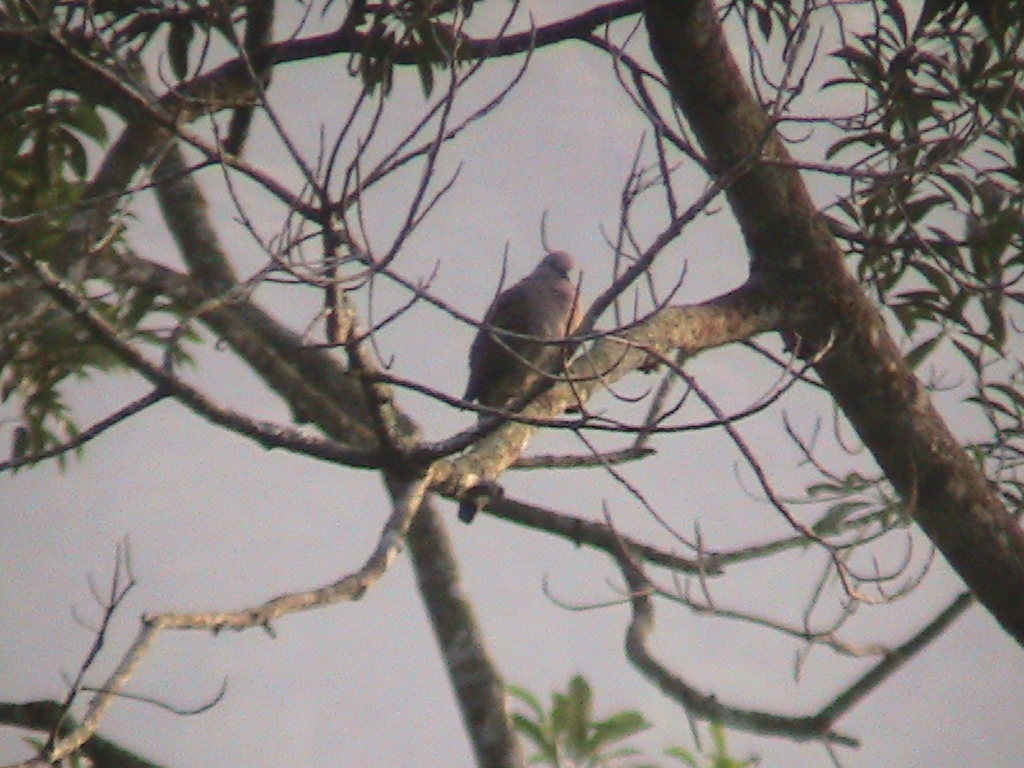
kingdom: Animalia
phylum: Chordata
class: Aves
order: Columbiformes
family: Columbidae
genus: Spilopelia
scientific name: Spilopelia chinensis
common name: Spotted dove
